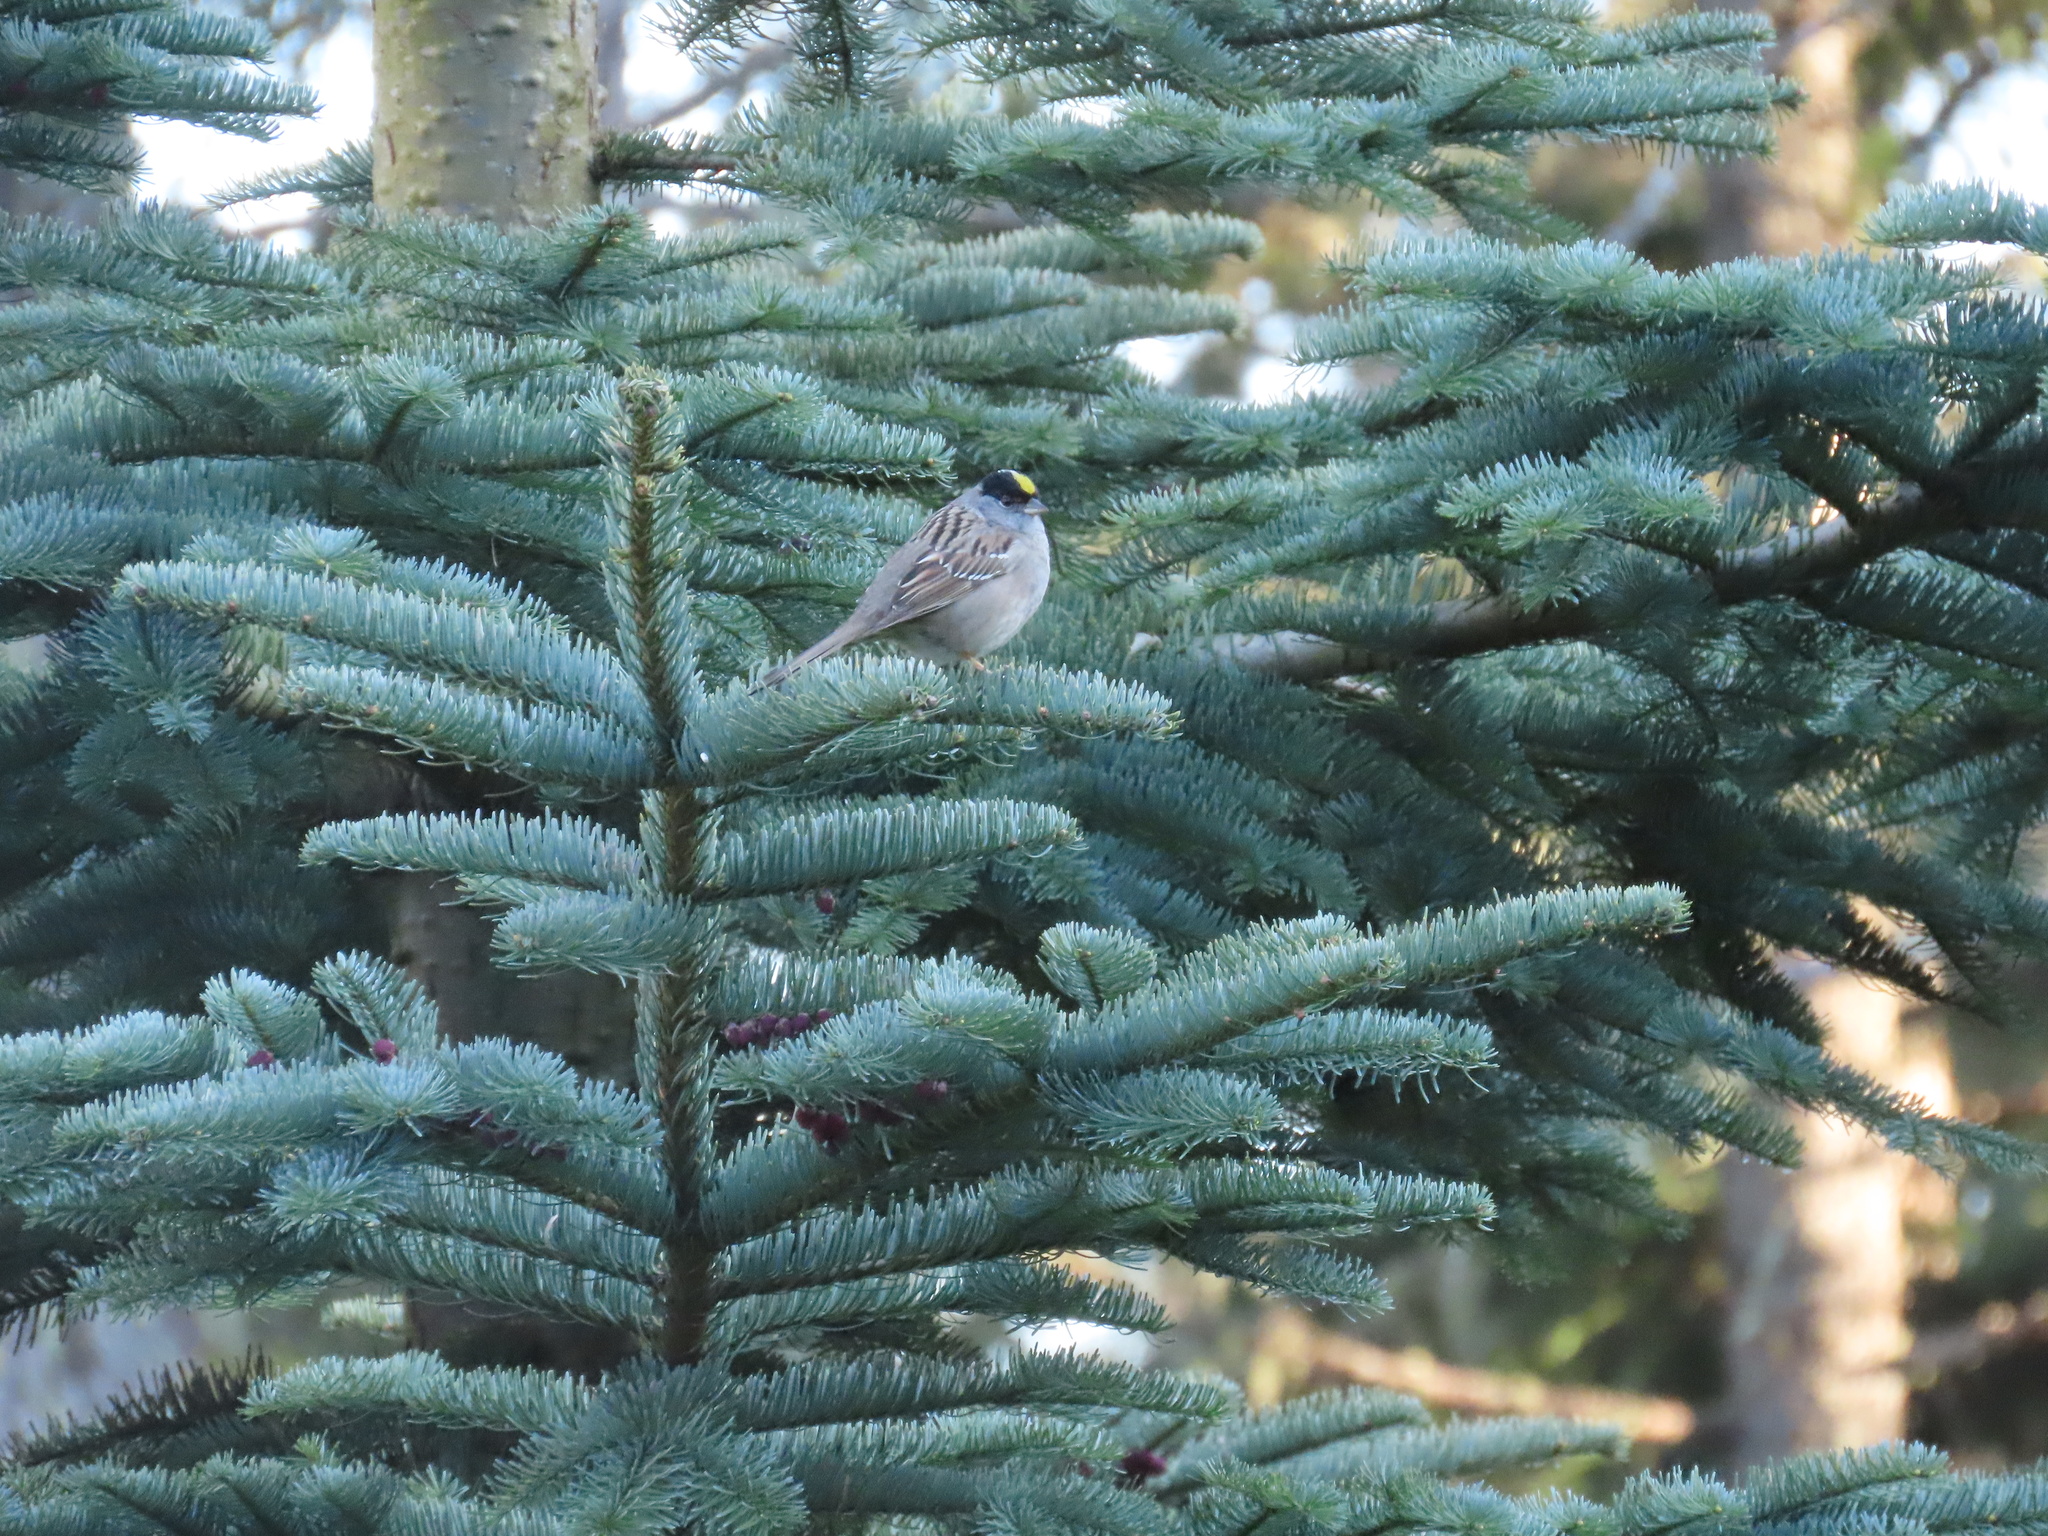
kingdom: Animalia
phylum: Chordata
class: Aves
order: Passeriformes
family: Passerellidae
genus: Zonotrichia
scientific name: Zonotrichia atricapilla
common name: Golden-crowned sparrow
